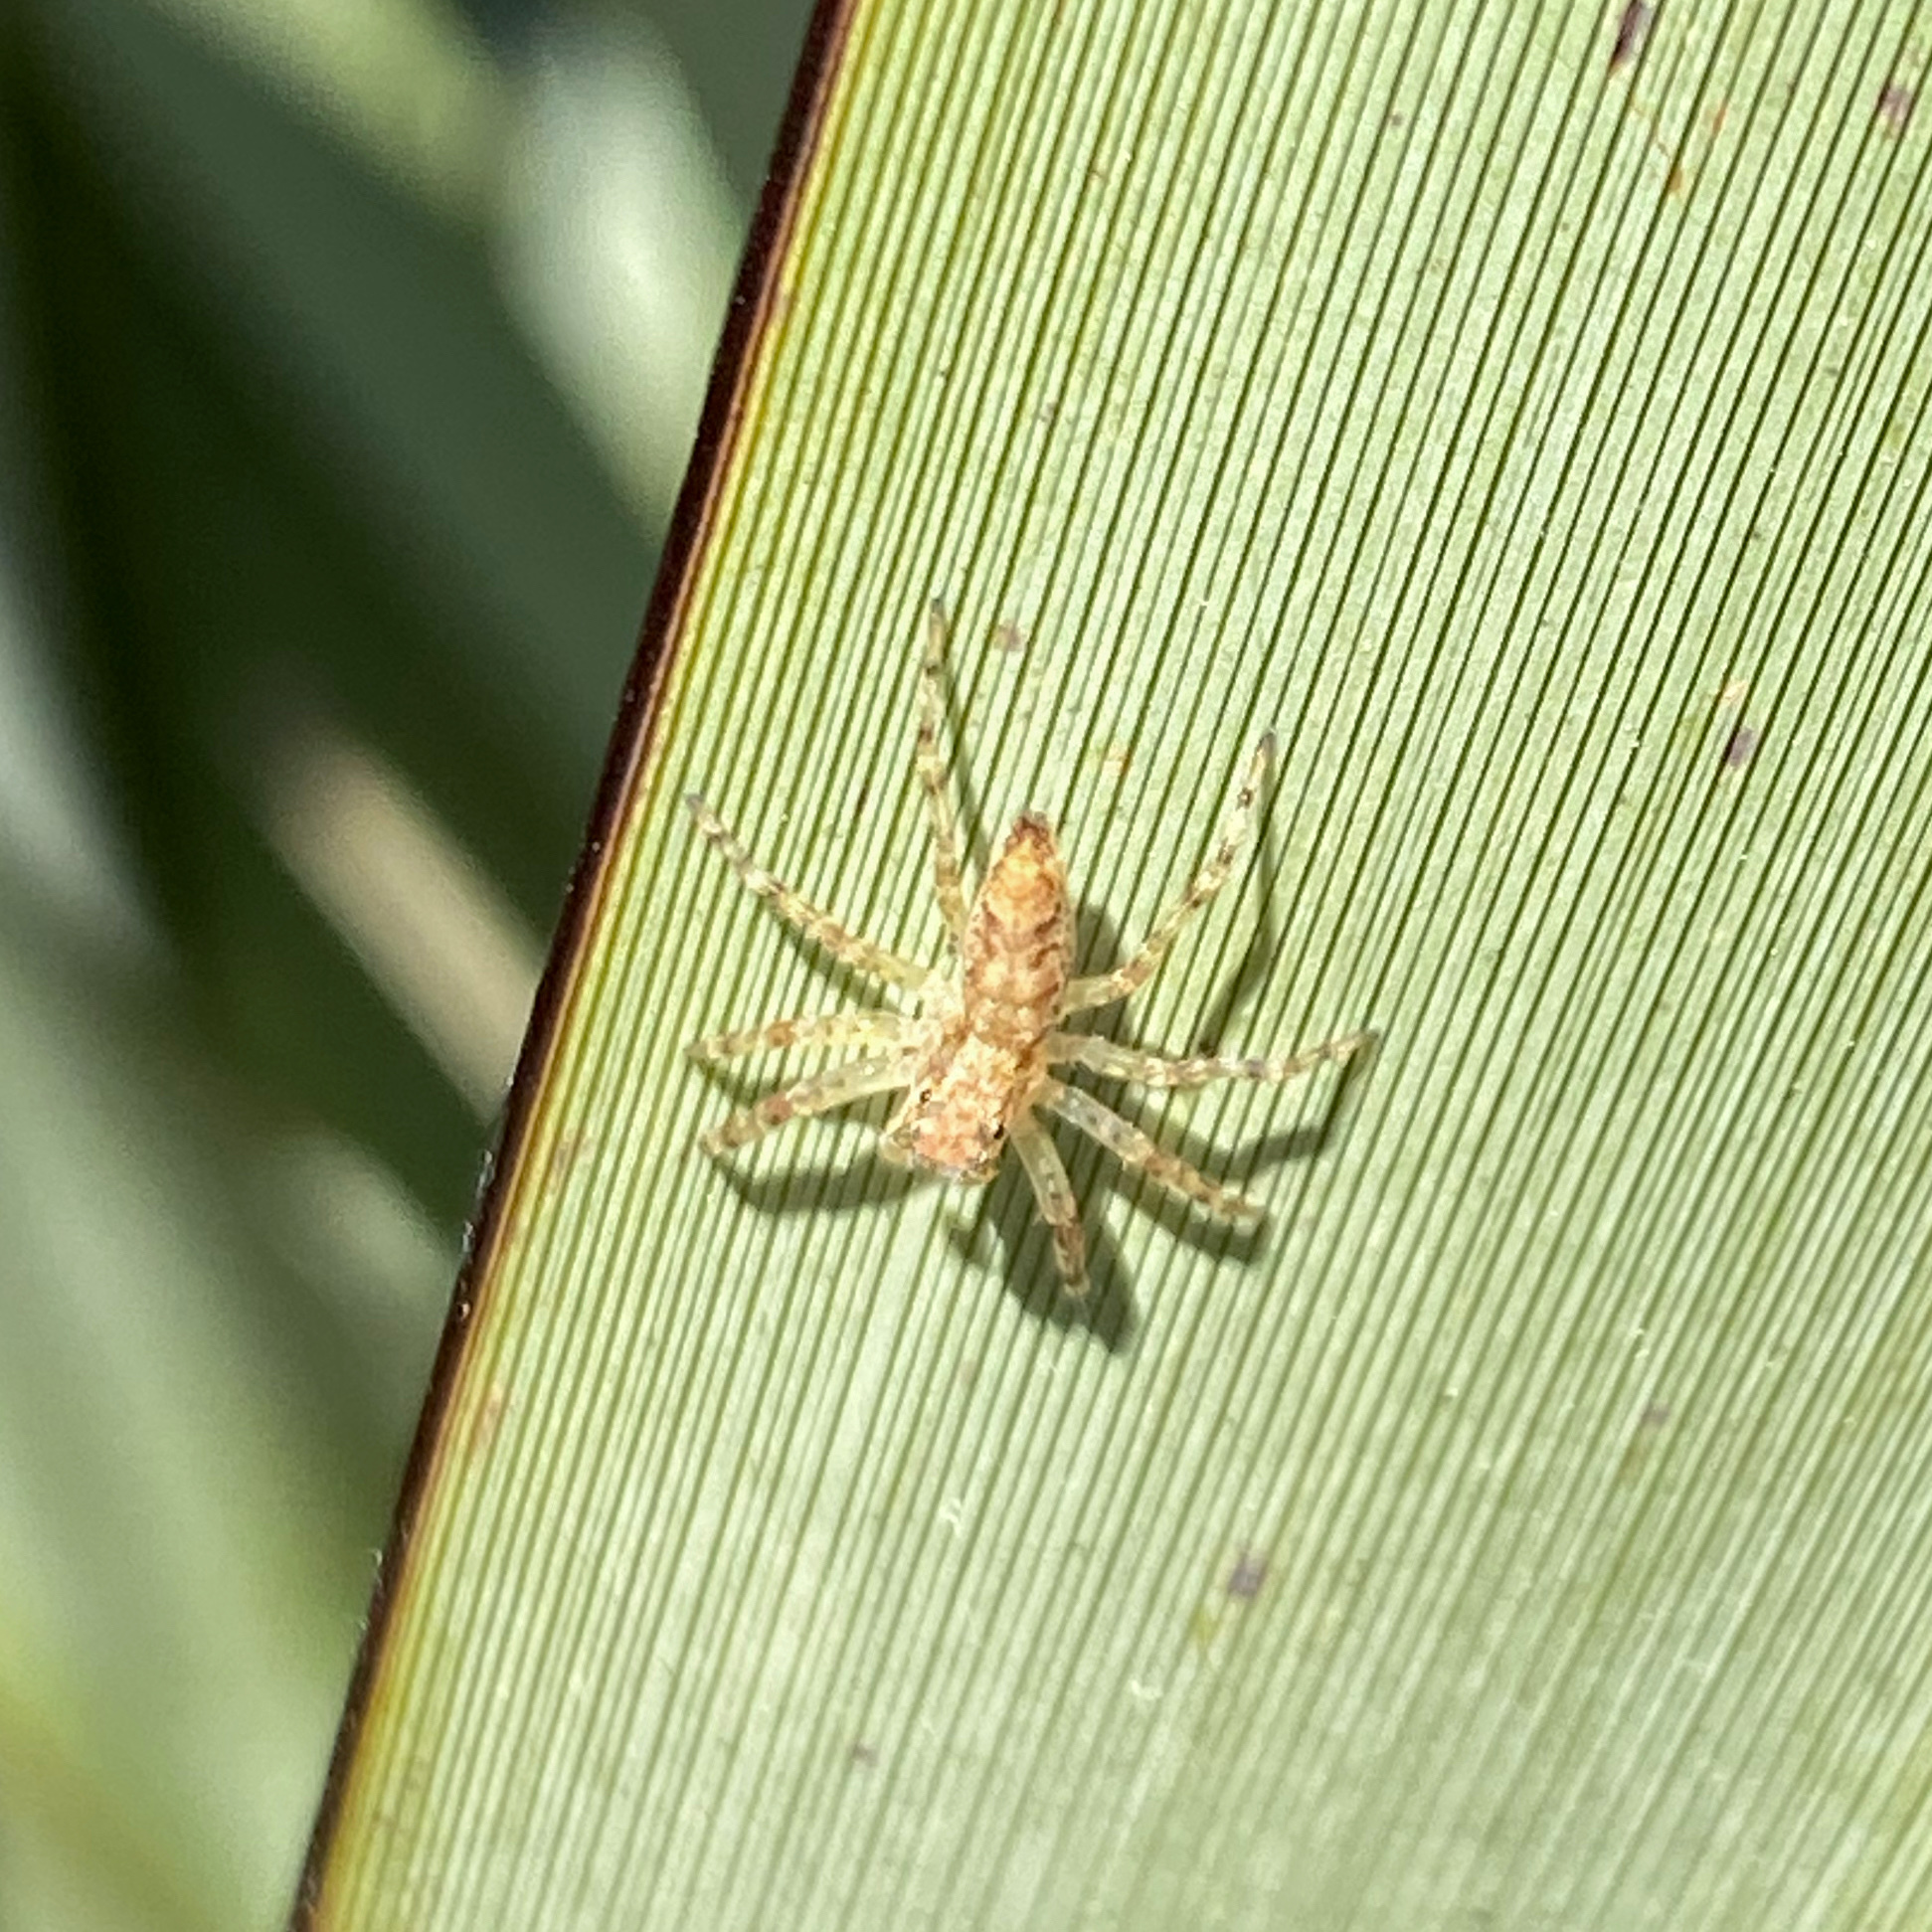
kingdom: Animalia
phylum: Arthropoda
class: Arachnida
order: Araneae
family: Salticidae
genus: Helpis
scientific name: Helpis minitabunda
